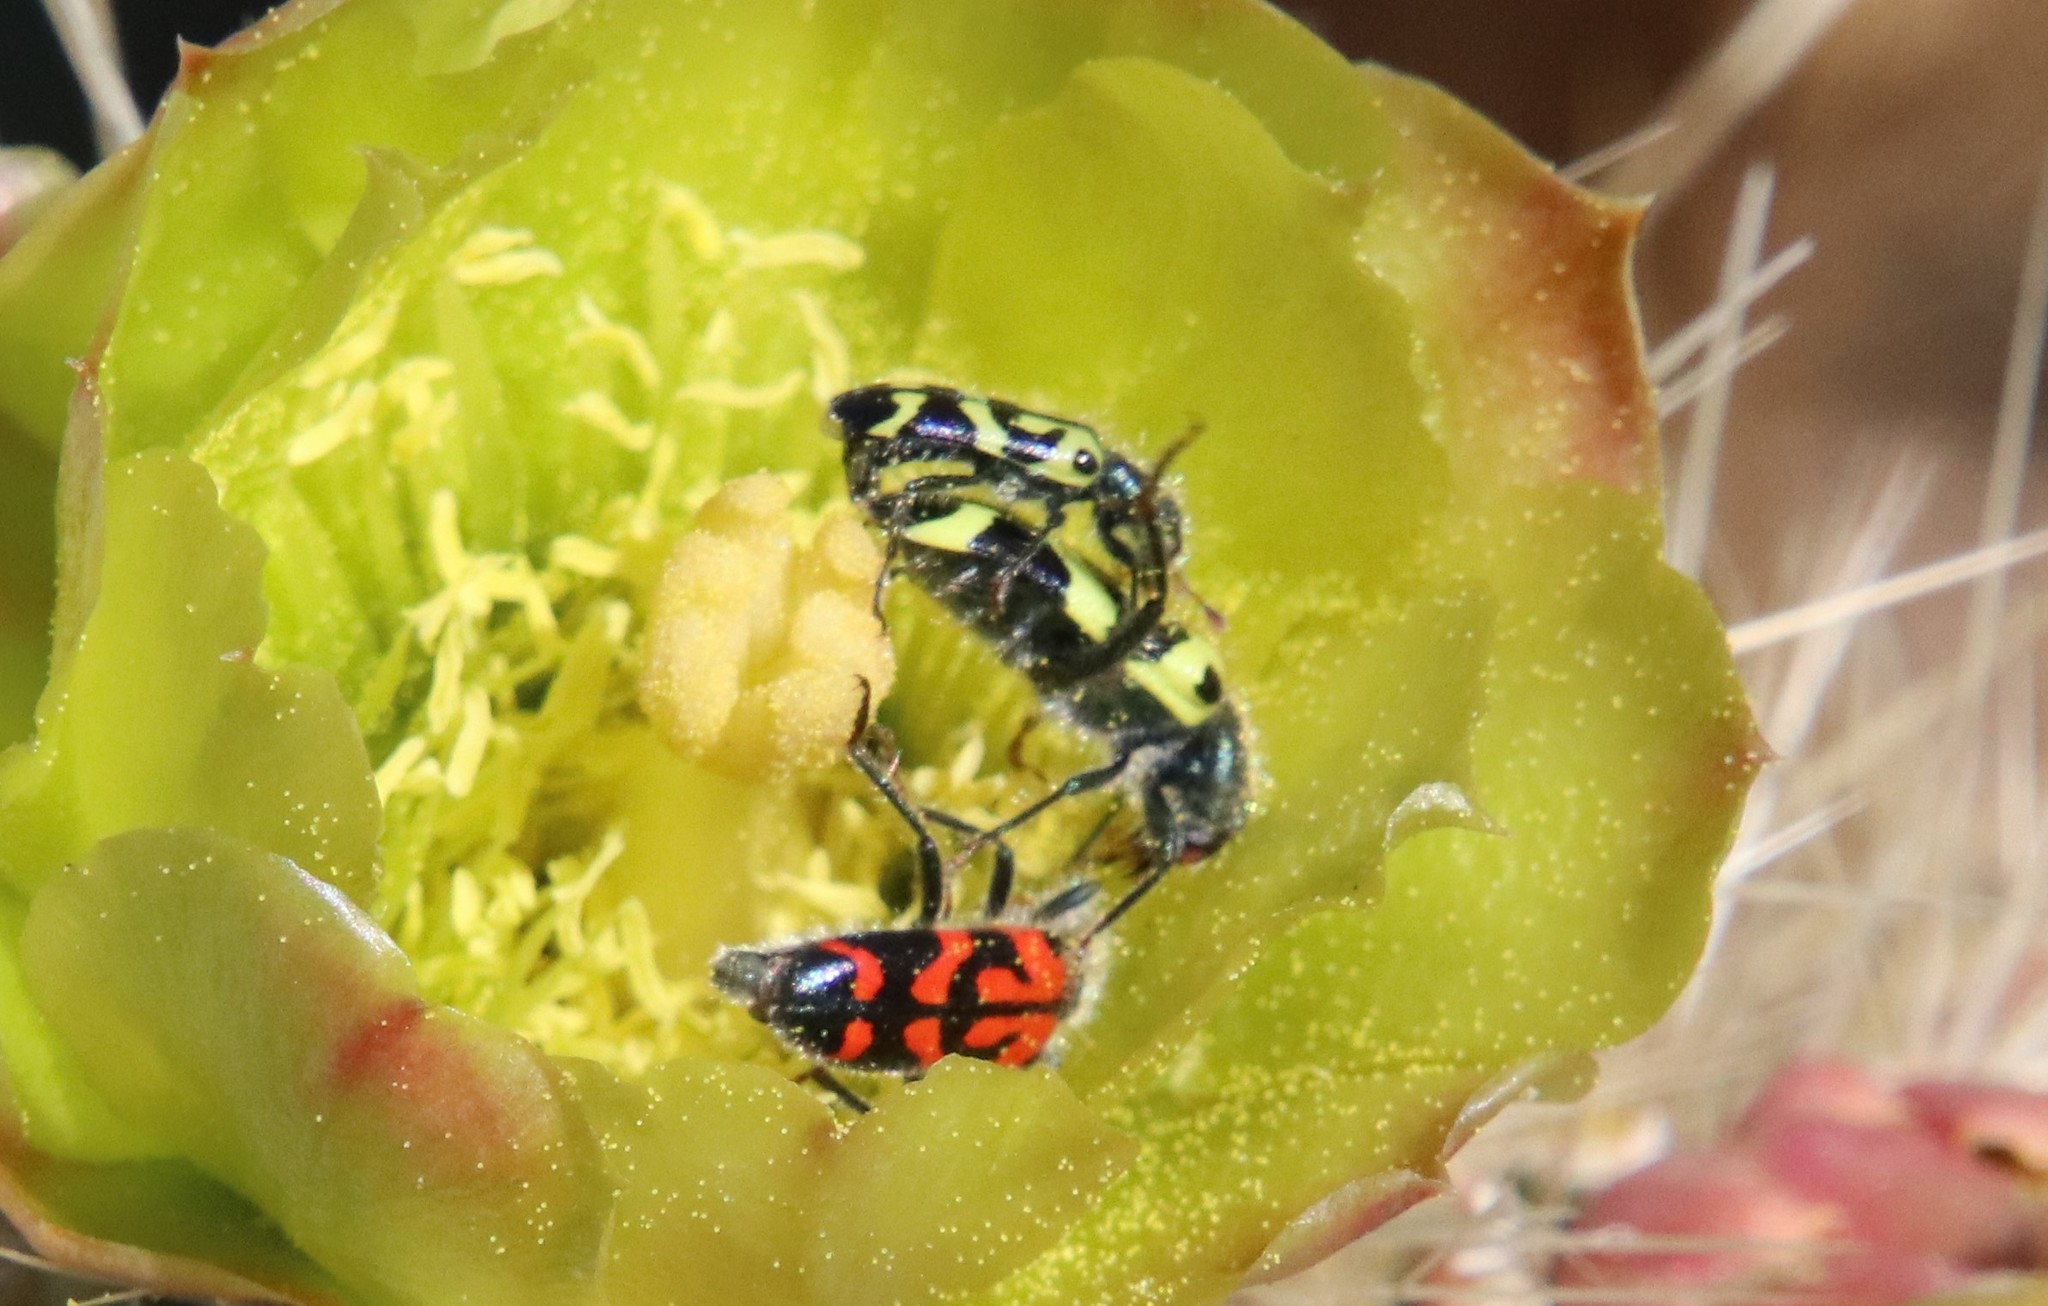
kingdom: Animalia
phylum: Arthropoda
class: Insecta
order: Coleoptera
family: Cleridae
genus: Trichodes
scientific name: Trichodes ornatus
